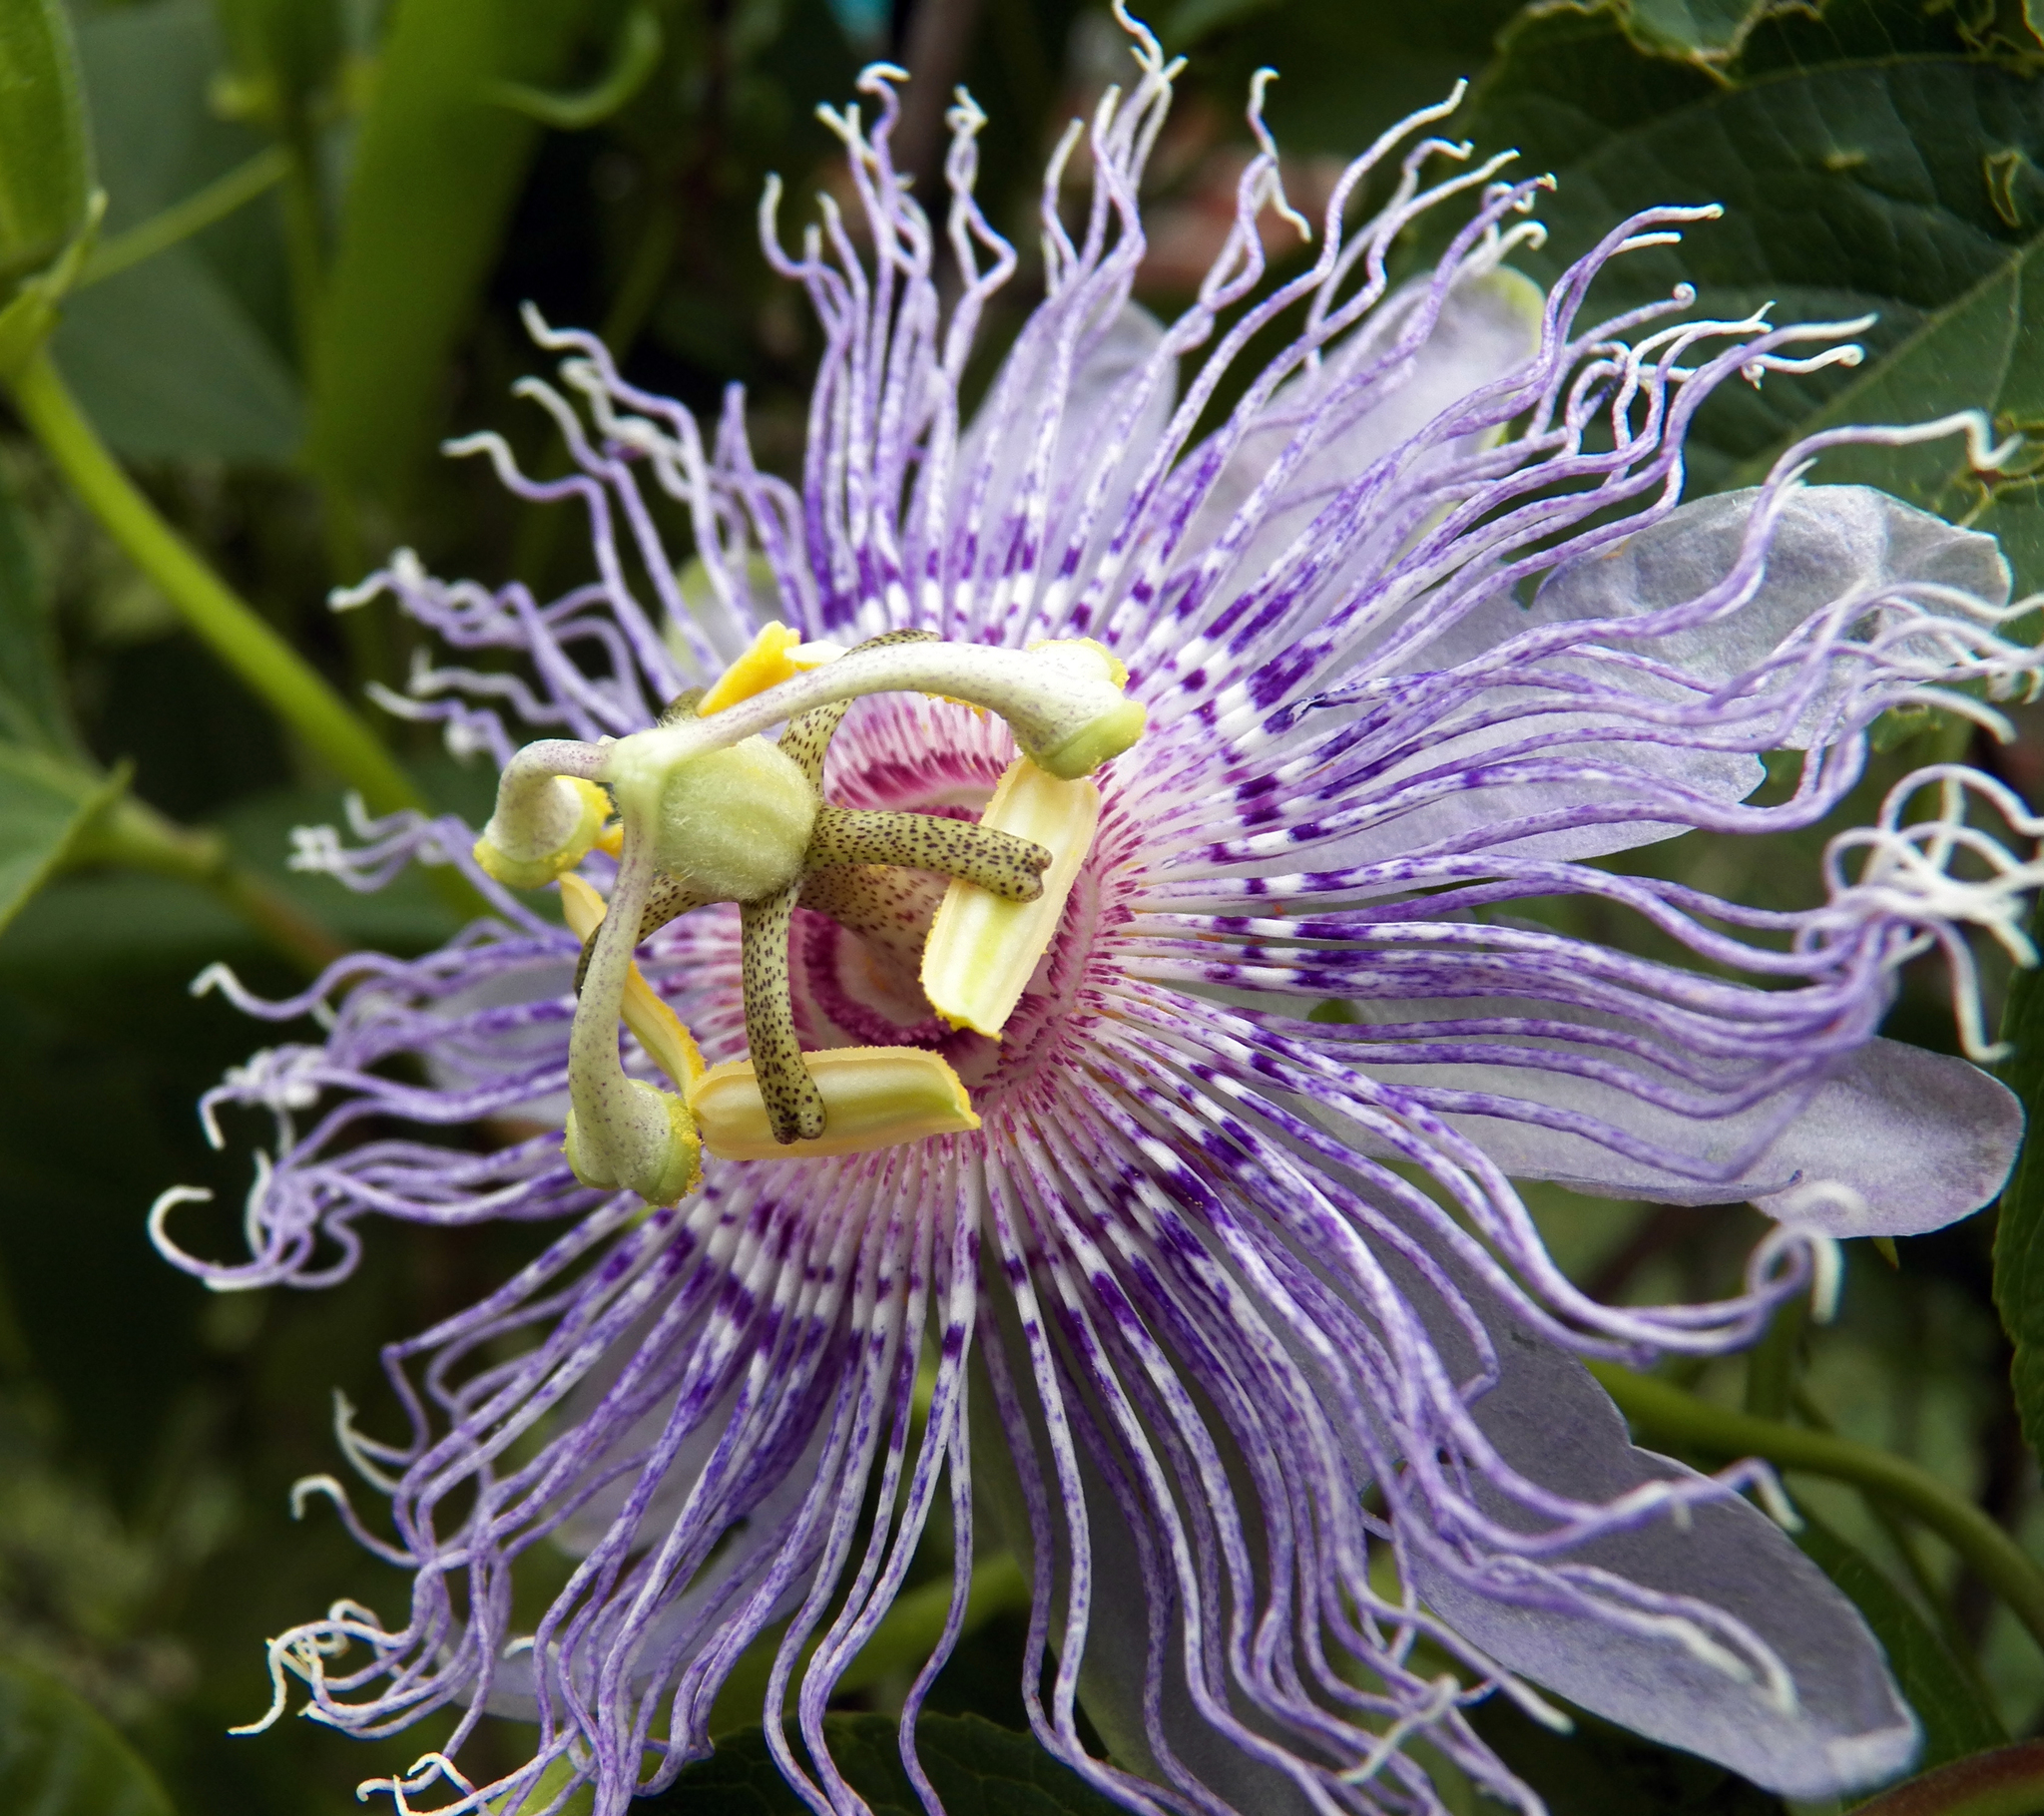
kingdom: Plantae
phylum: Tracheophyta
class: Magnoliopsida
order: Malpighiales
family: Passifloraceae
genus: Passiflora
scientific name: Passiflora incarnata
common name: Apricot-vine
